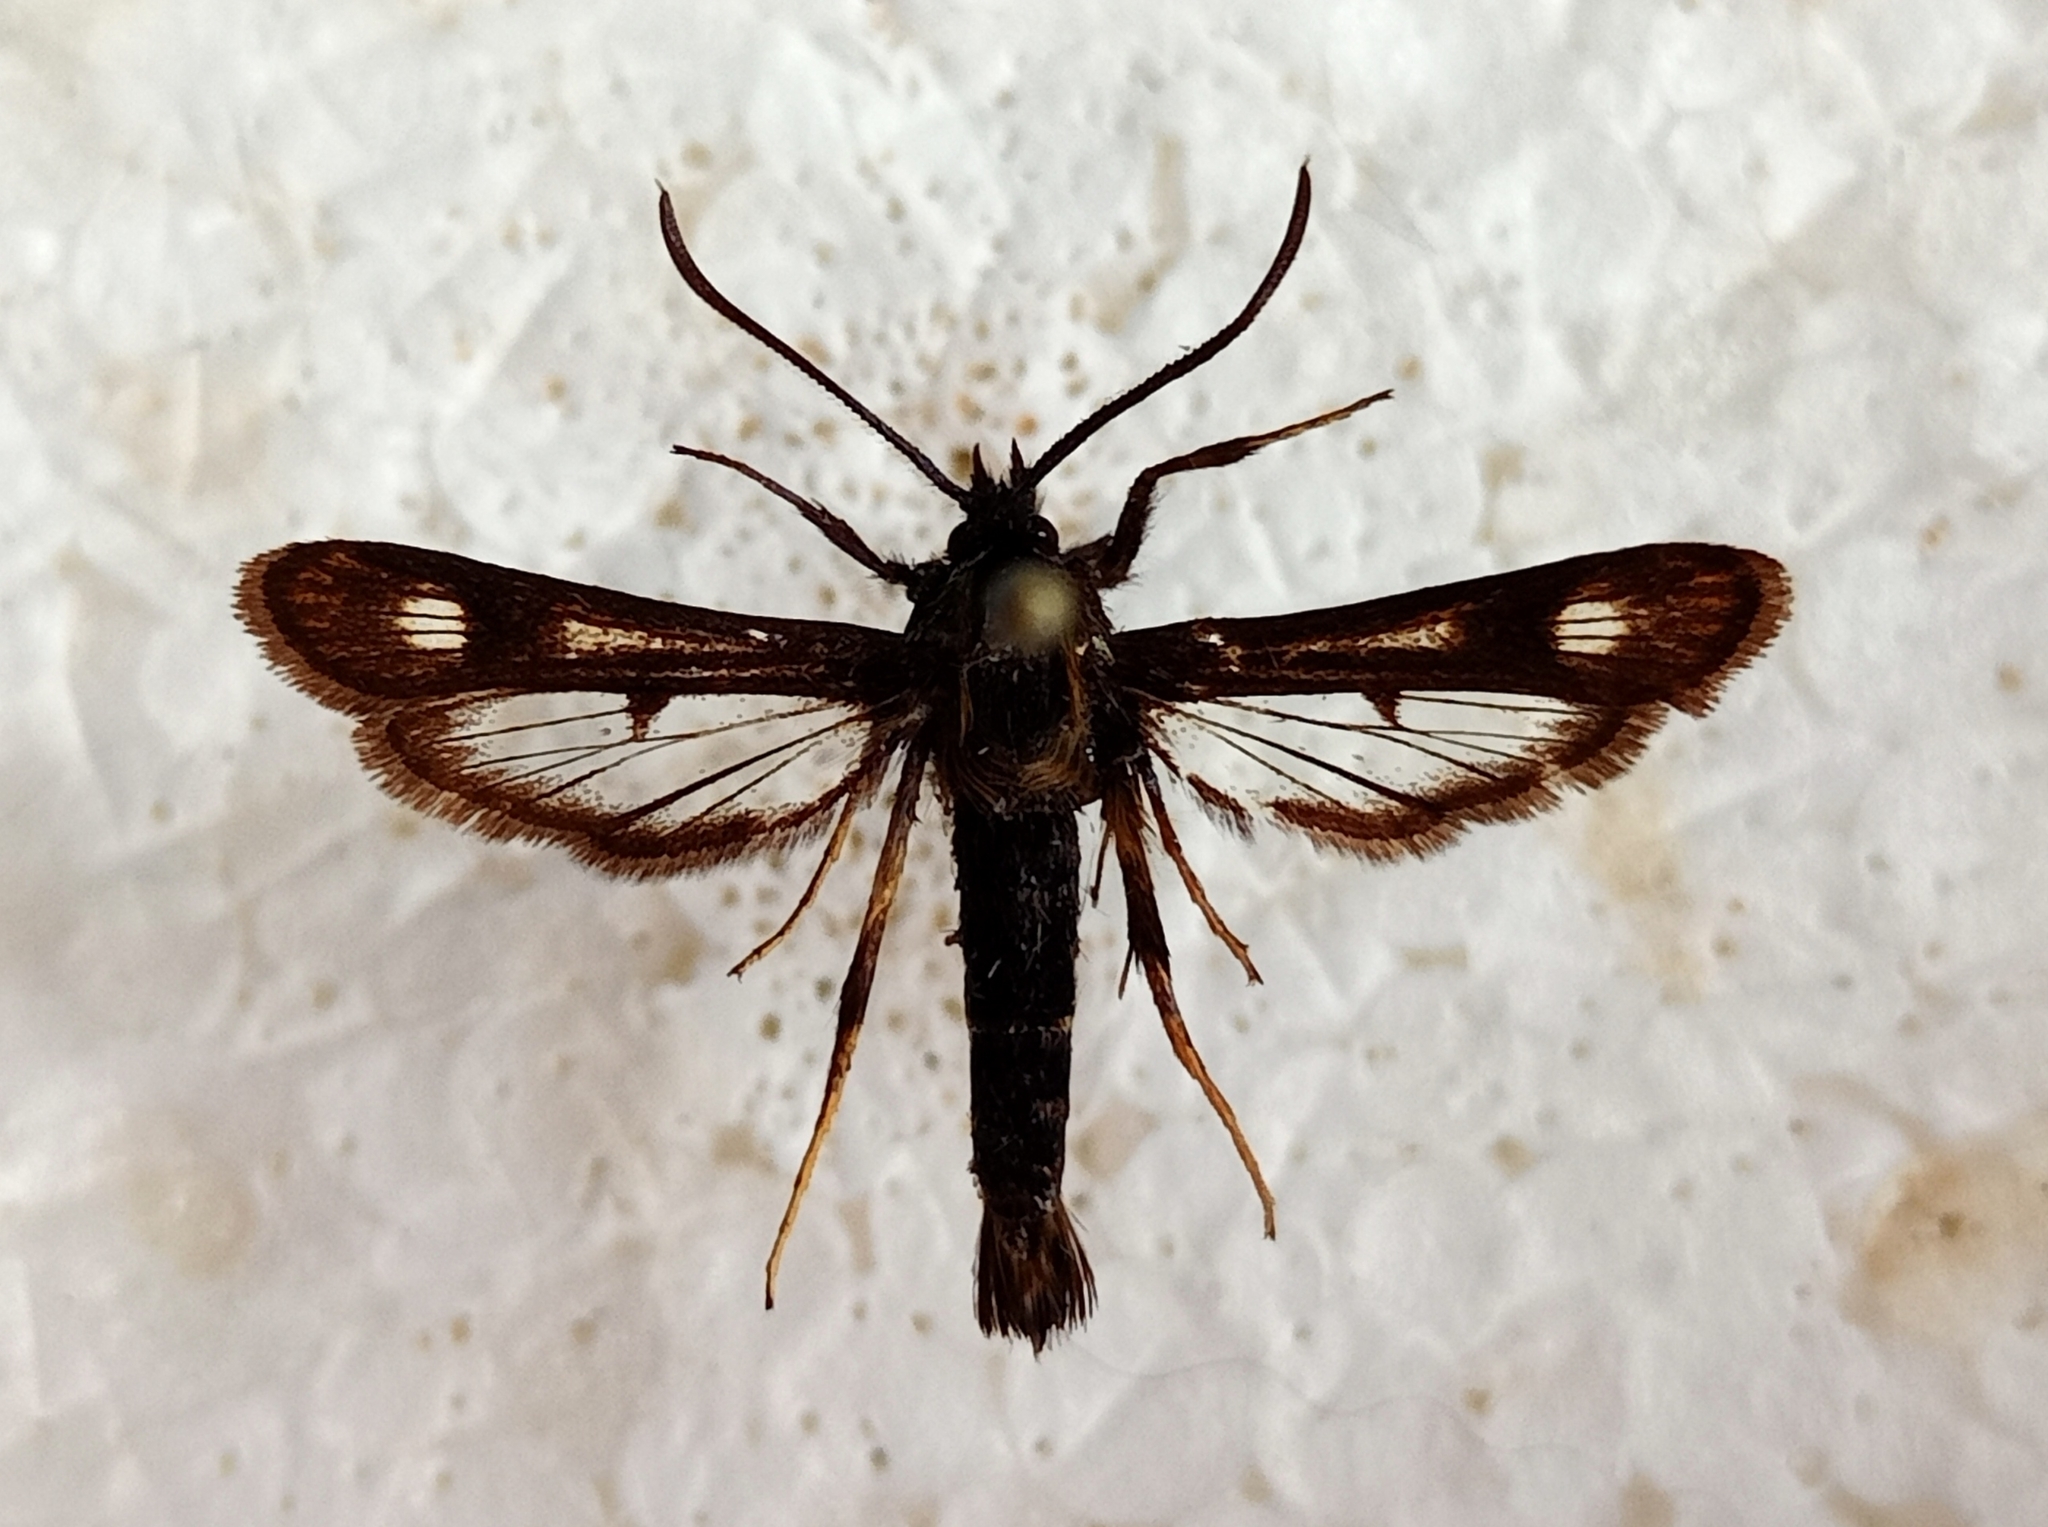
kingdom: Animalia
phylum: Arthropoda
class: Insecta
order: Lepidoptera
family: Sesiidae
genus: Chamaesphecia
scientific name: Chamaesphecia sogdianica
